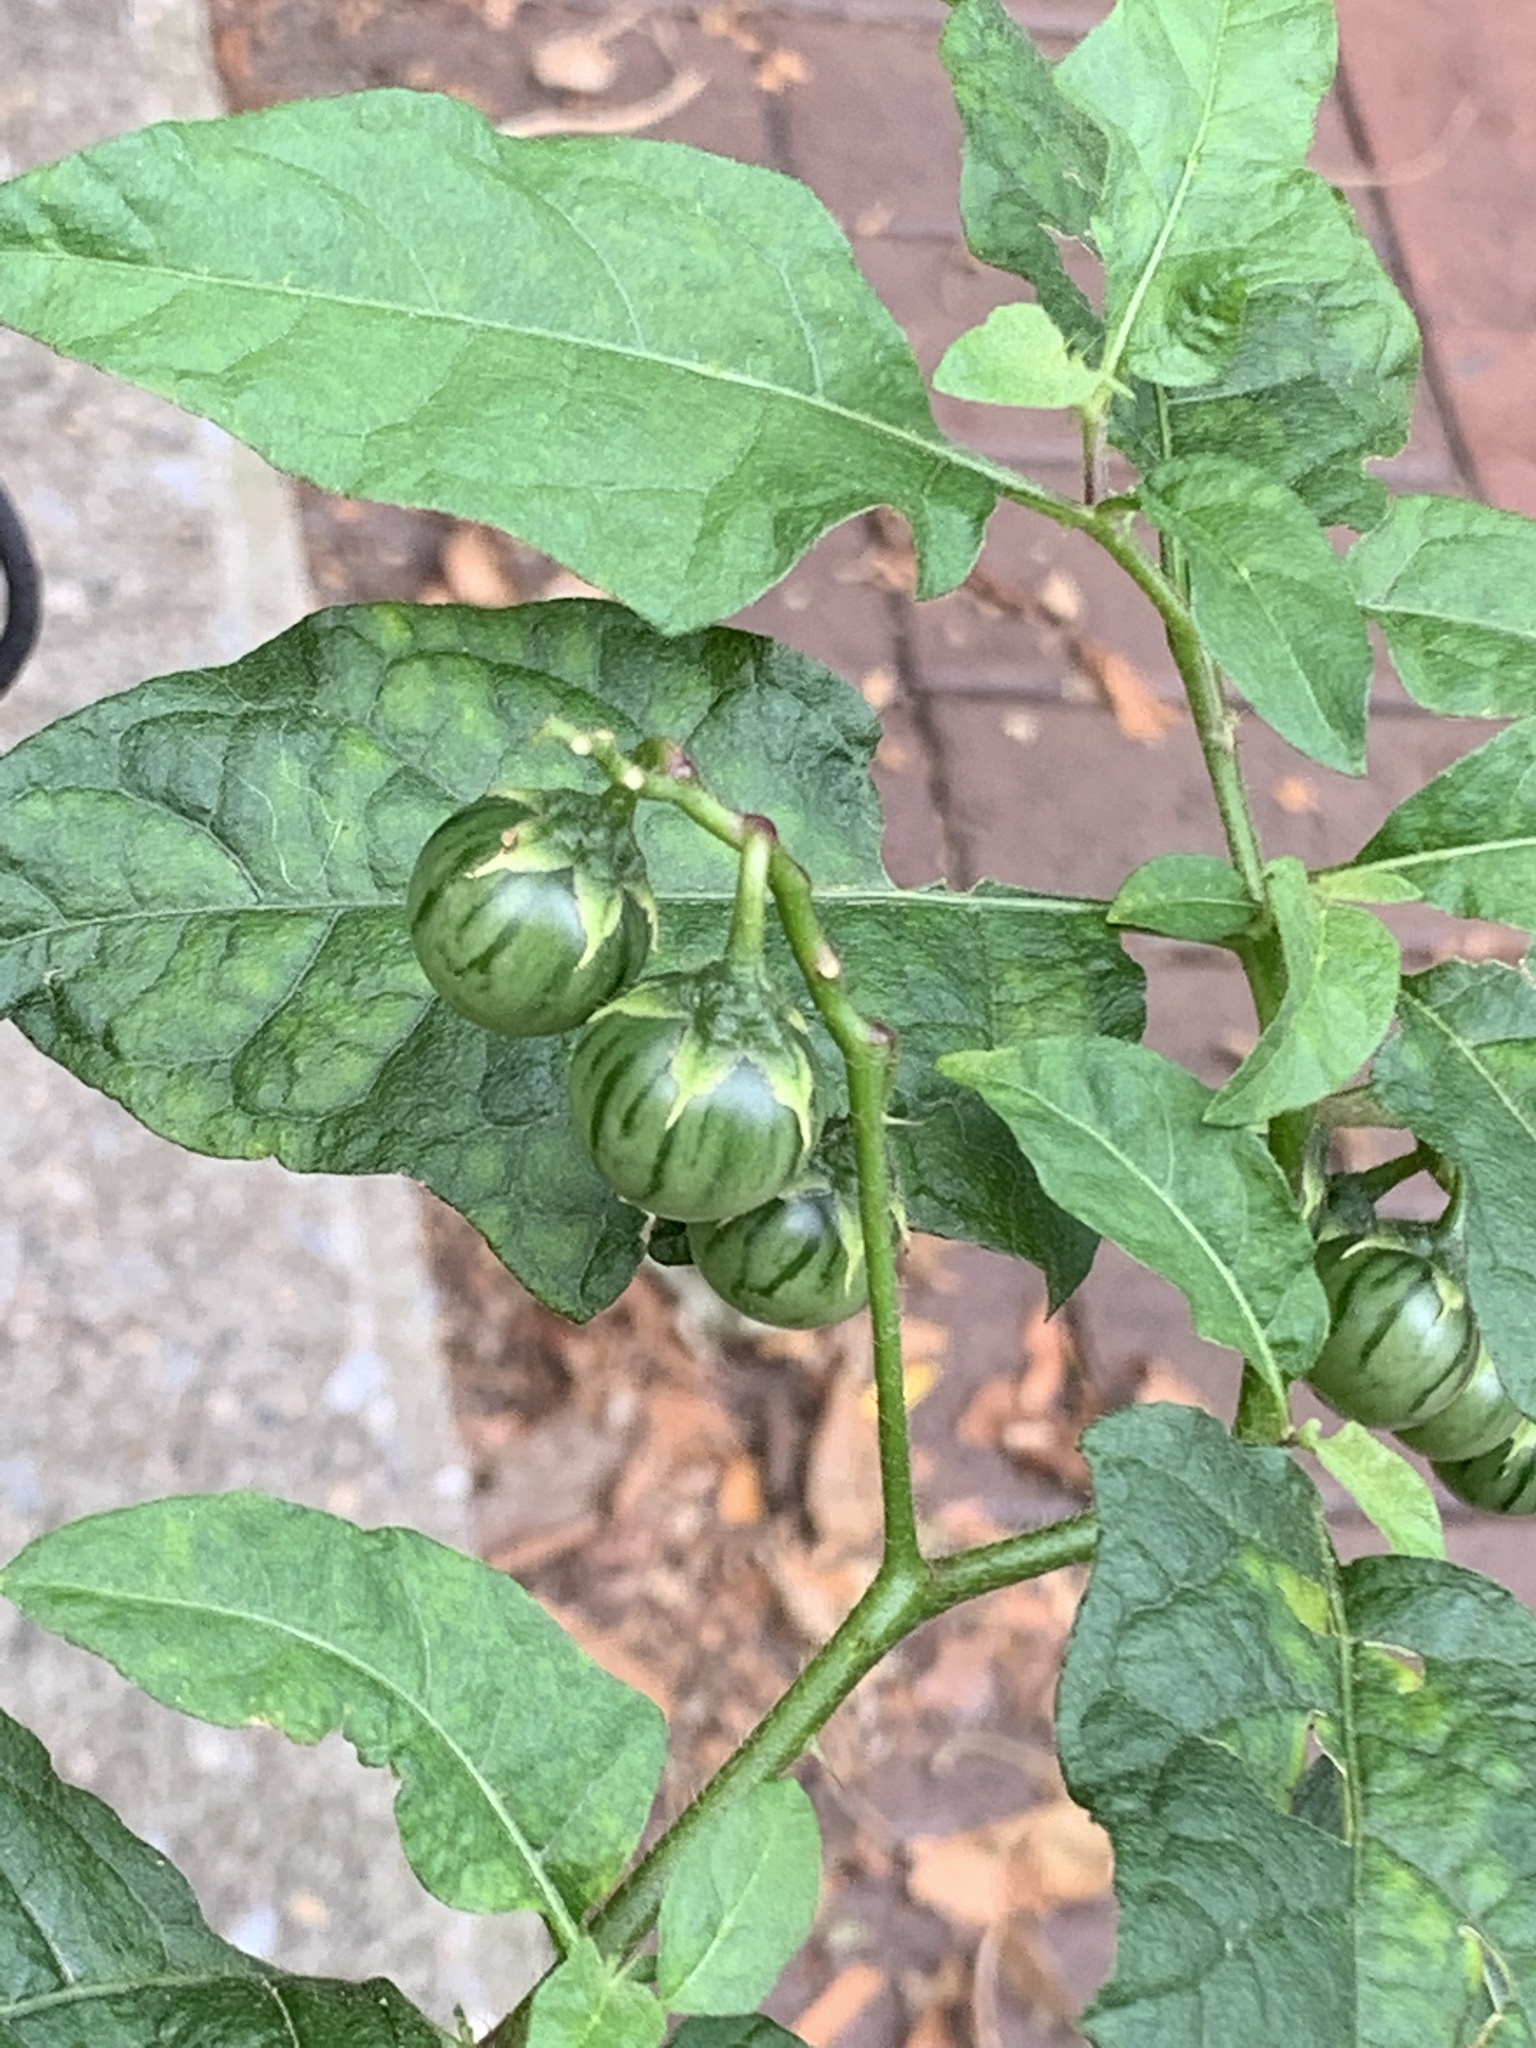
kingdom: Plantae
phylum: Tracheophyta
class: Magnoliopsida
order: Solanales
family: Solanaceae
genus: Solanum
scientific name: Solanum carolinense
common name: Horse-nettle
